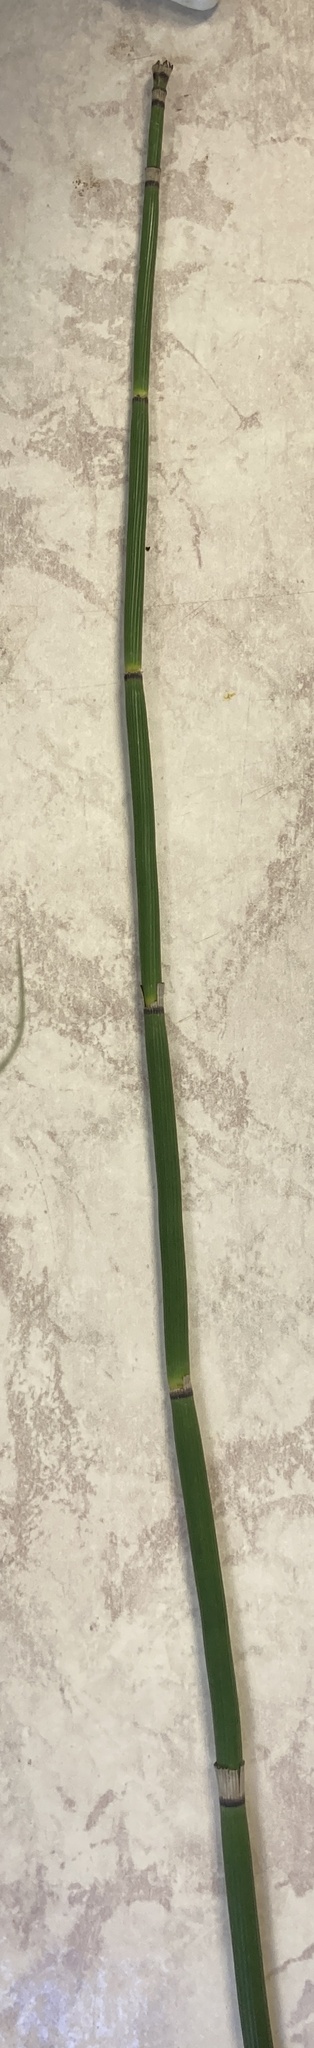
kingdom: Plantae
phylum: Tracheophyta
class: Polypodiopsida
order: Equisetales
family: Equisetaceae
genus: Equisetum
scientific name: Equisetum hyemale
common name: Rough horsetail
